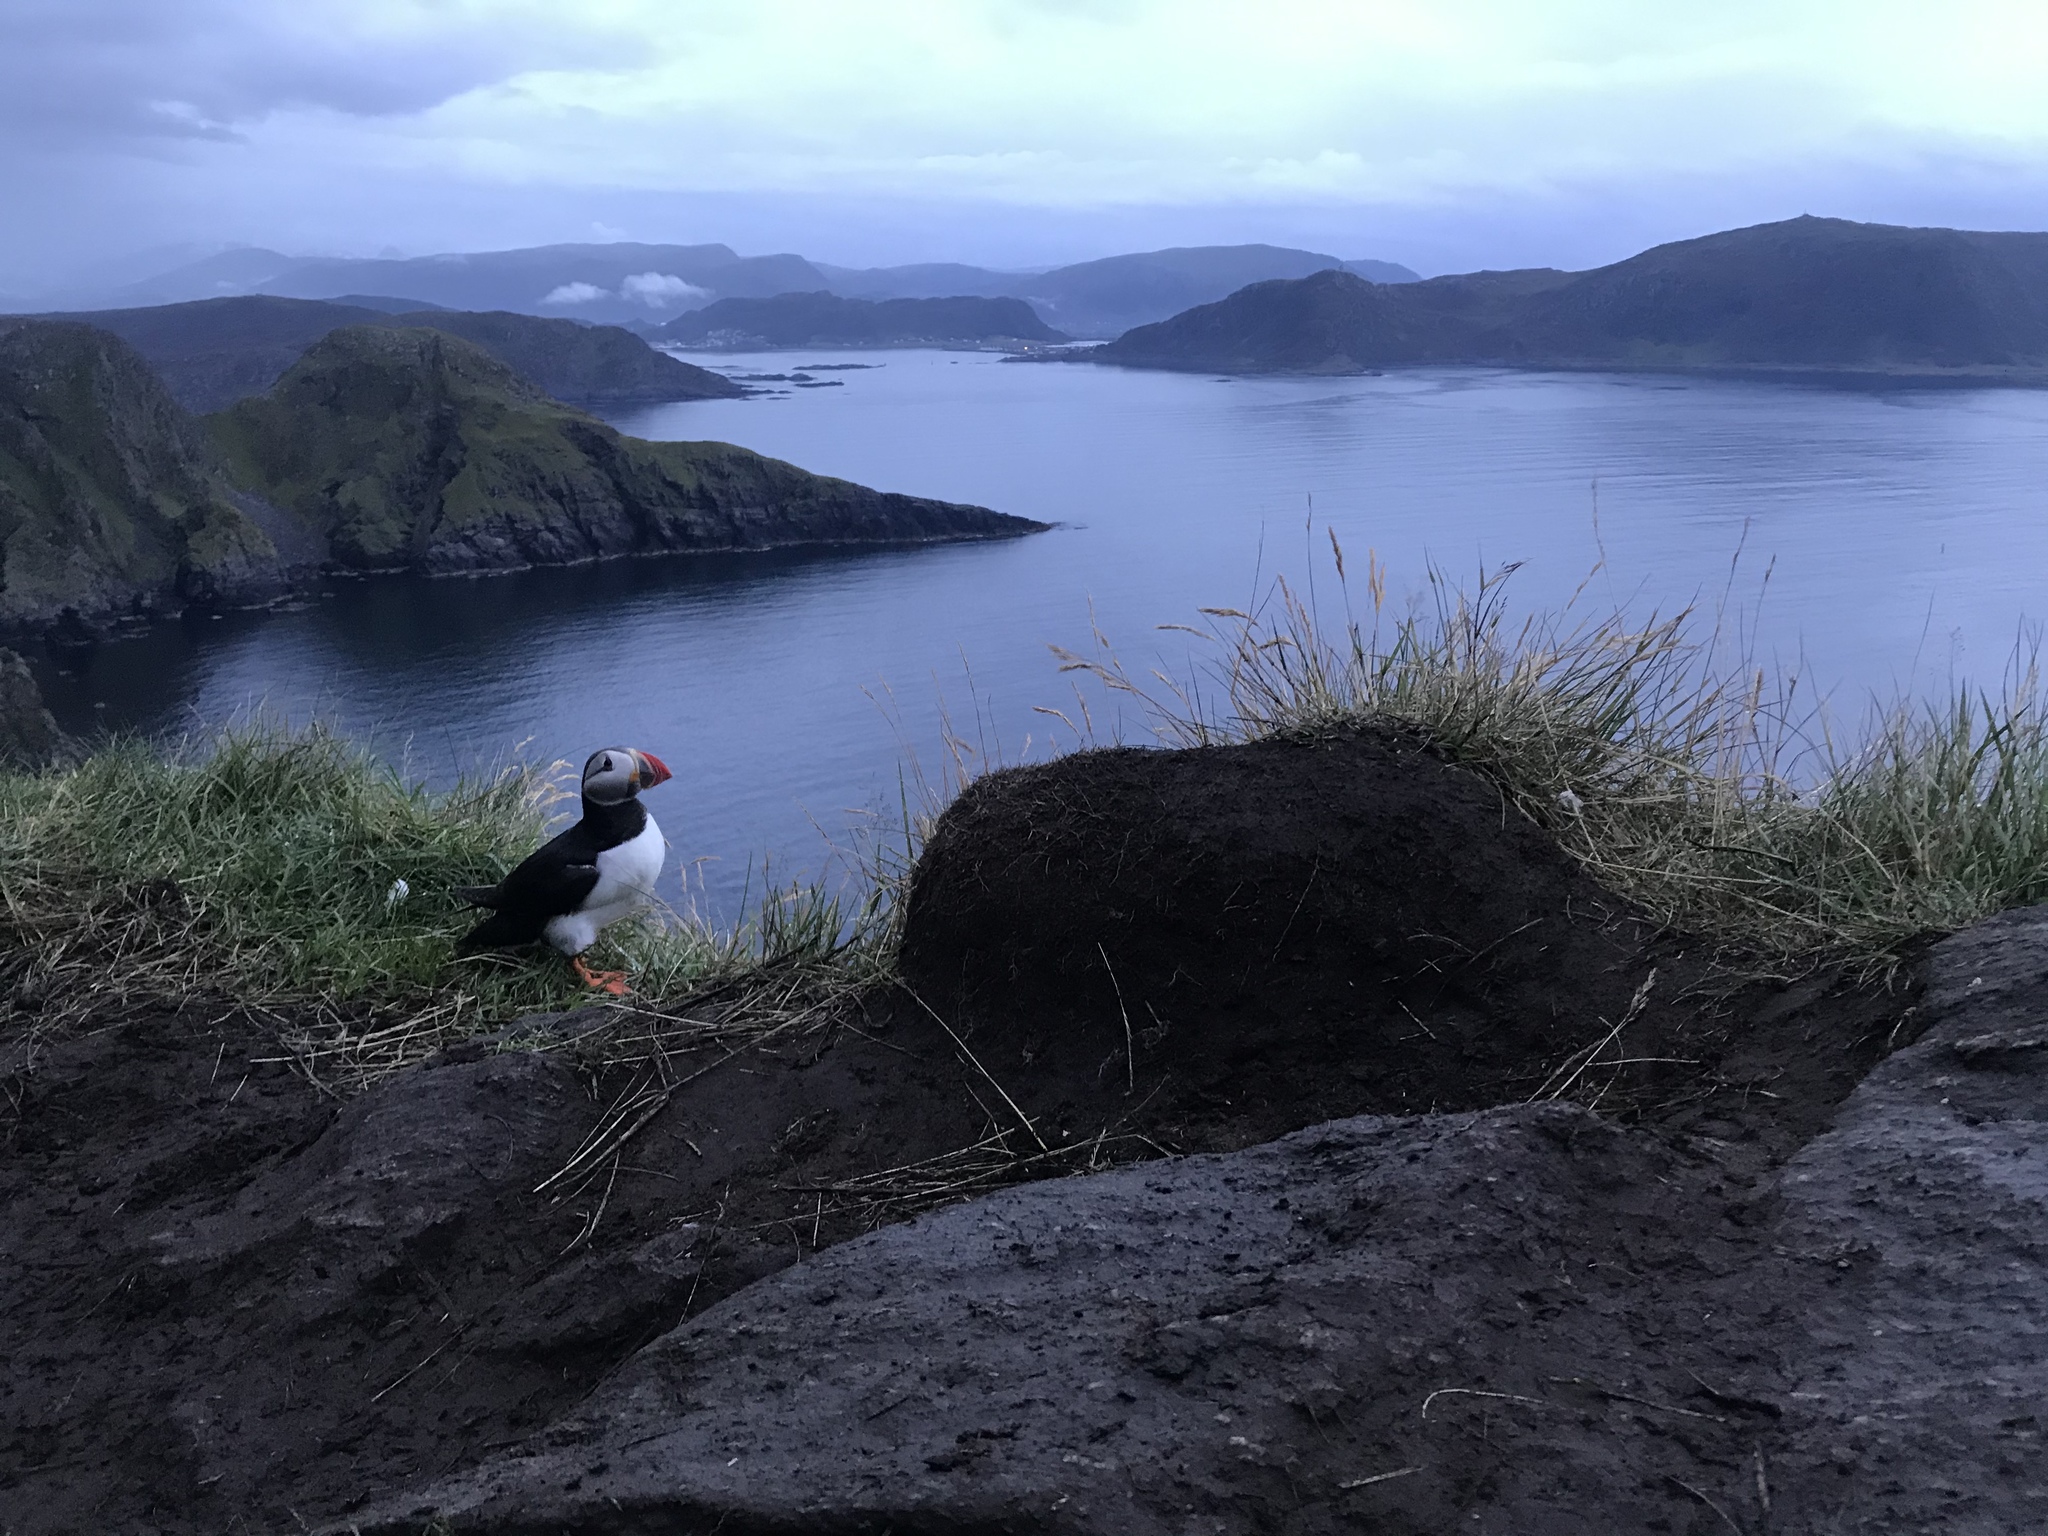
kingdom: Animalia
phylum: Chordata
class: Aves
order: Charadriiformes
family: Alcidae
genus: Fratercula
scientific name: Fratercula arctica
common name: Atlantic puffin
